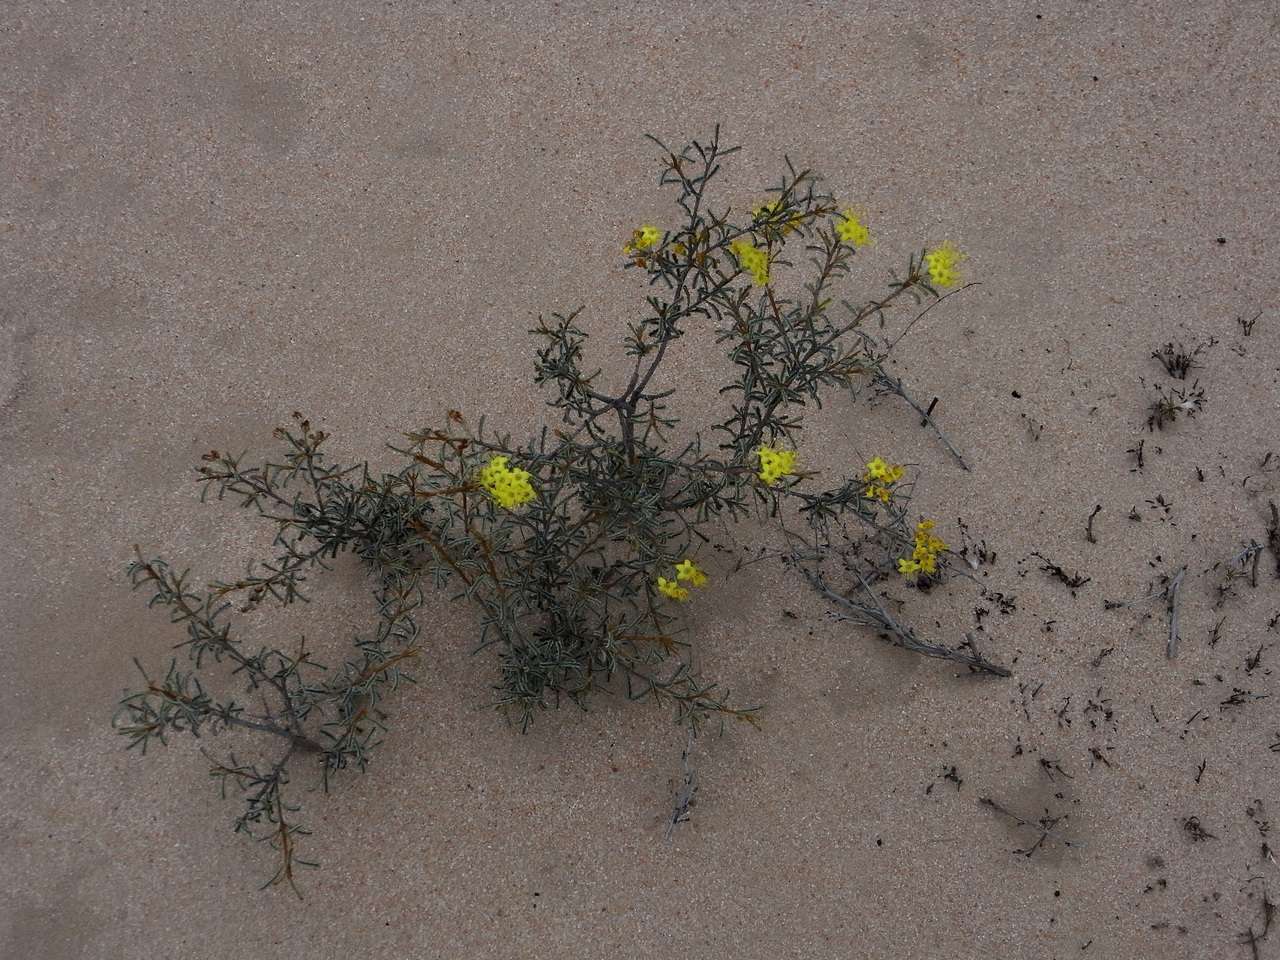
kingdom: Plantae
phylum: Tracheophyta
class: Magnoliopsida
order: Sapindales
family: Rutaceae
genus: Phebalium
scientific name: Phebalium bullatum
